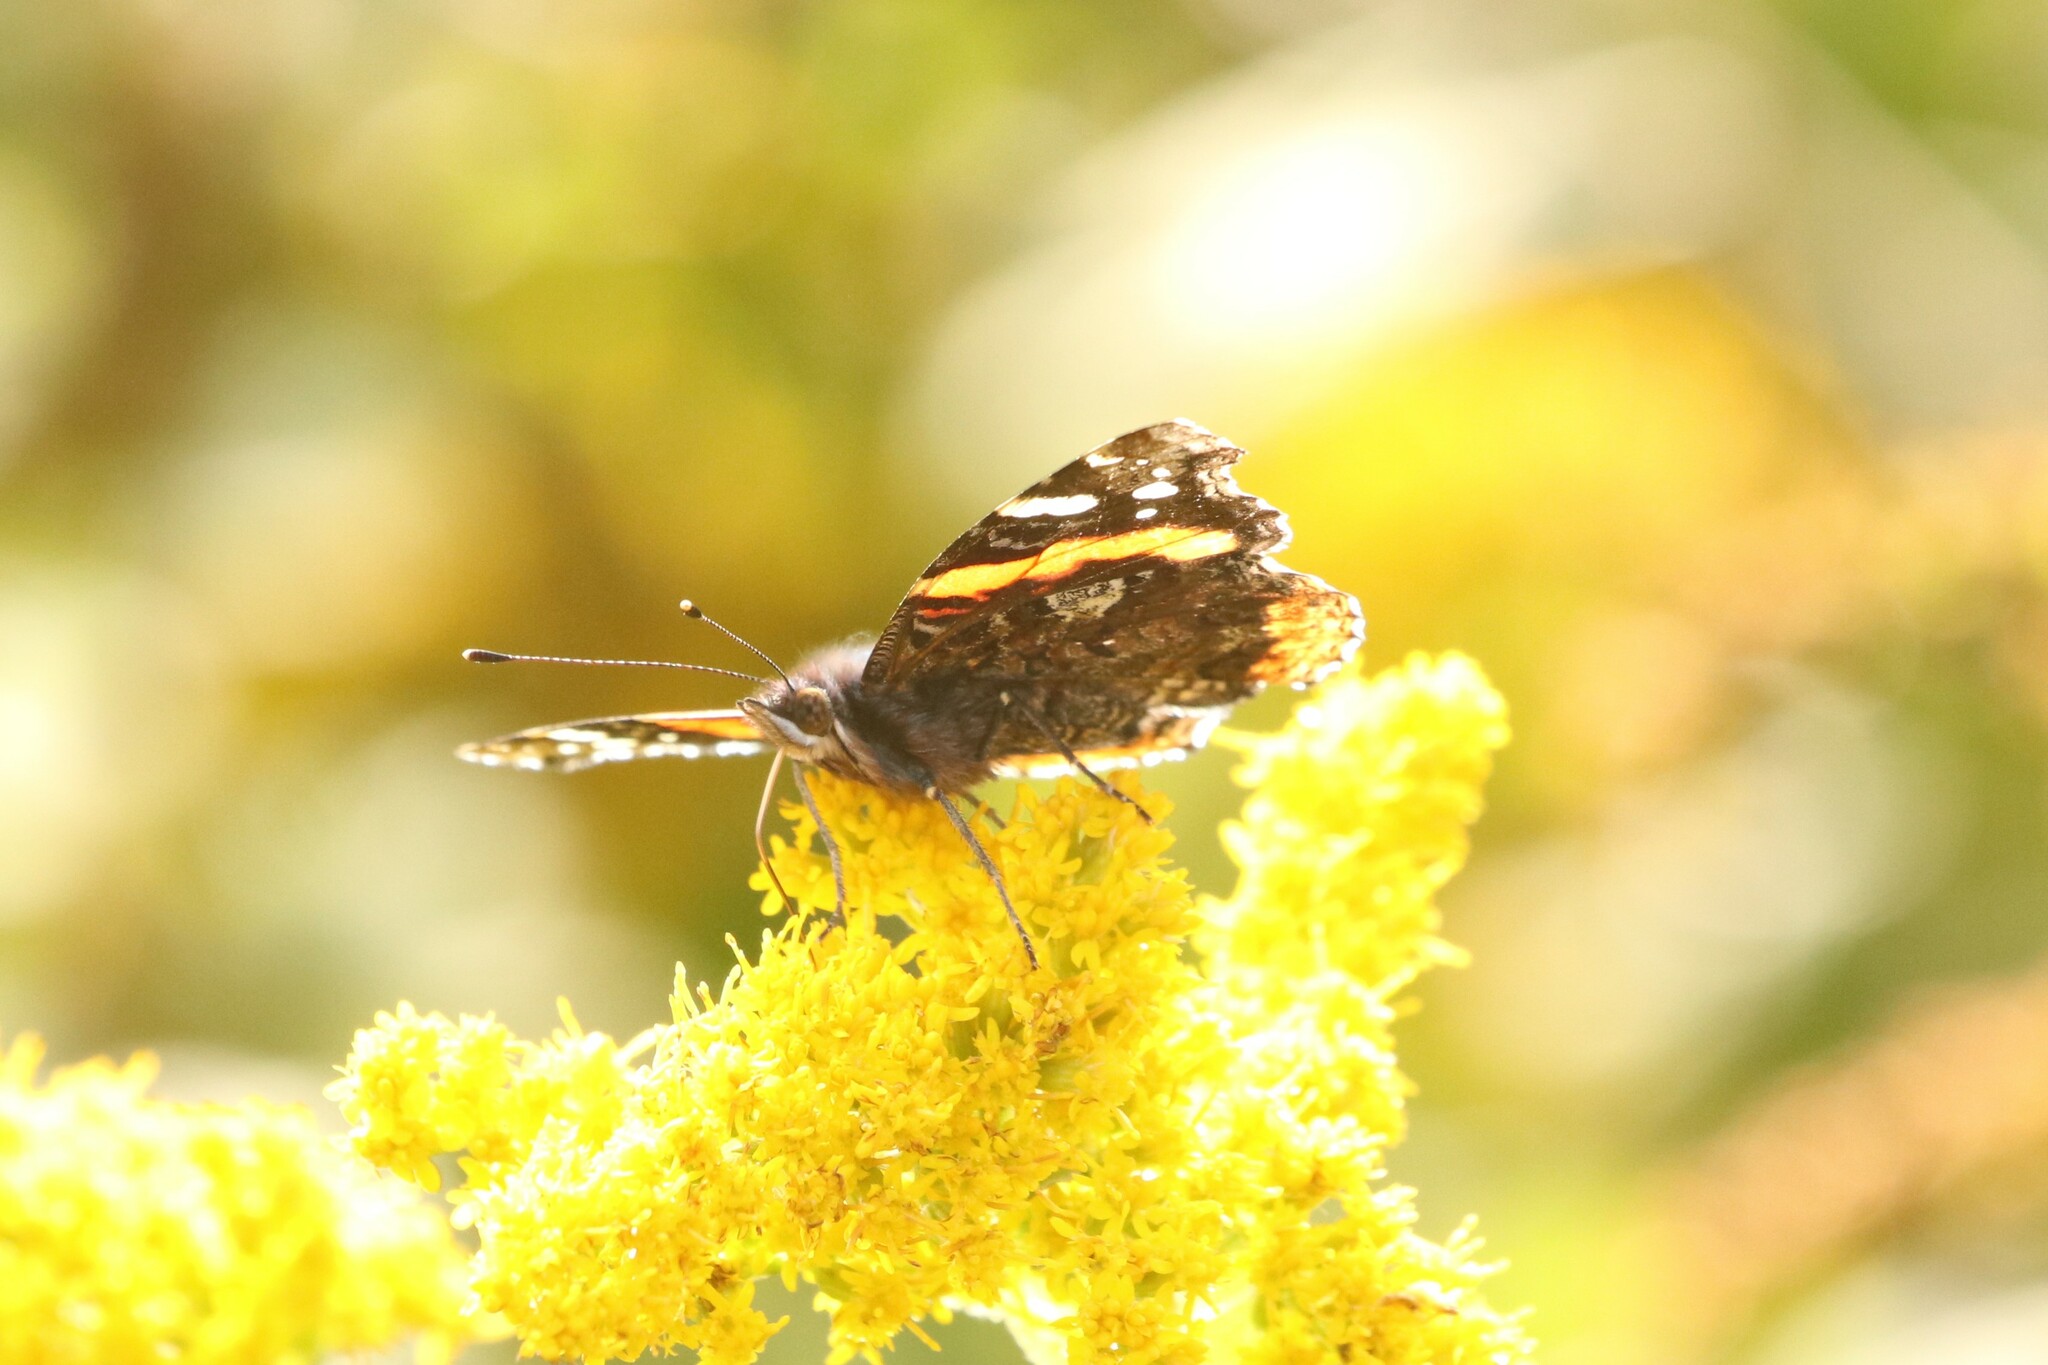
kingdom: Animalia
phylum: Arthropoda
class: Insecta
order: Lepidoptera
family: Nymphalidae
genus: Vanessa
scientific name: Vanessa atalanta
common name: Red admiral
